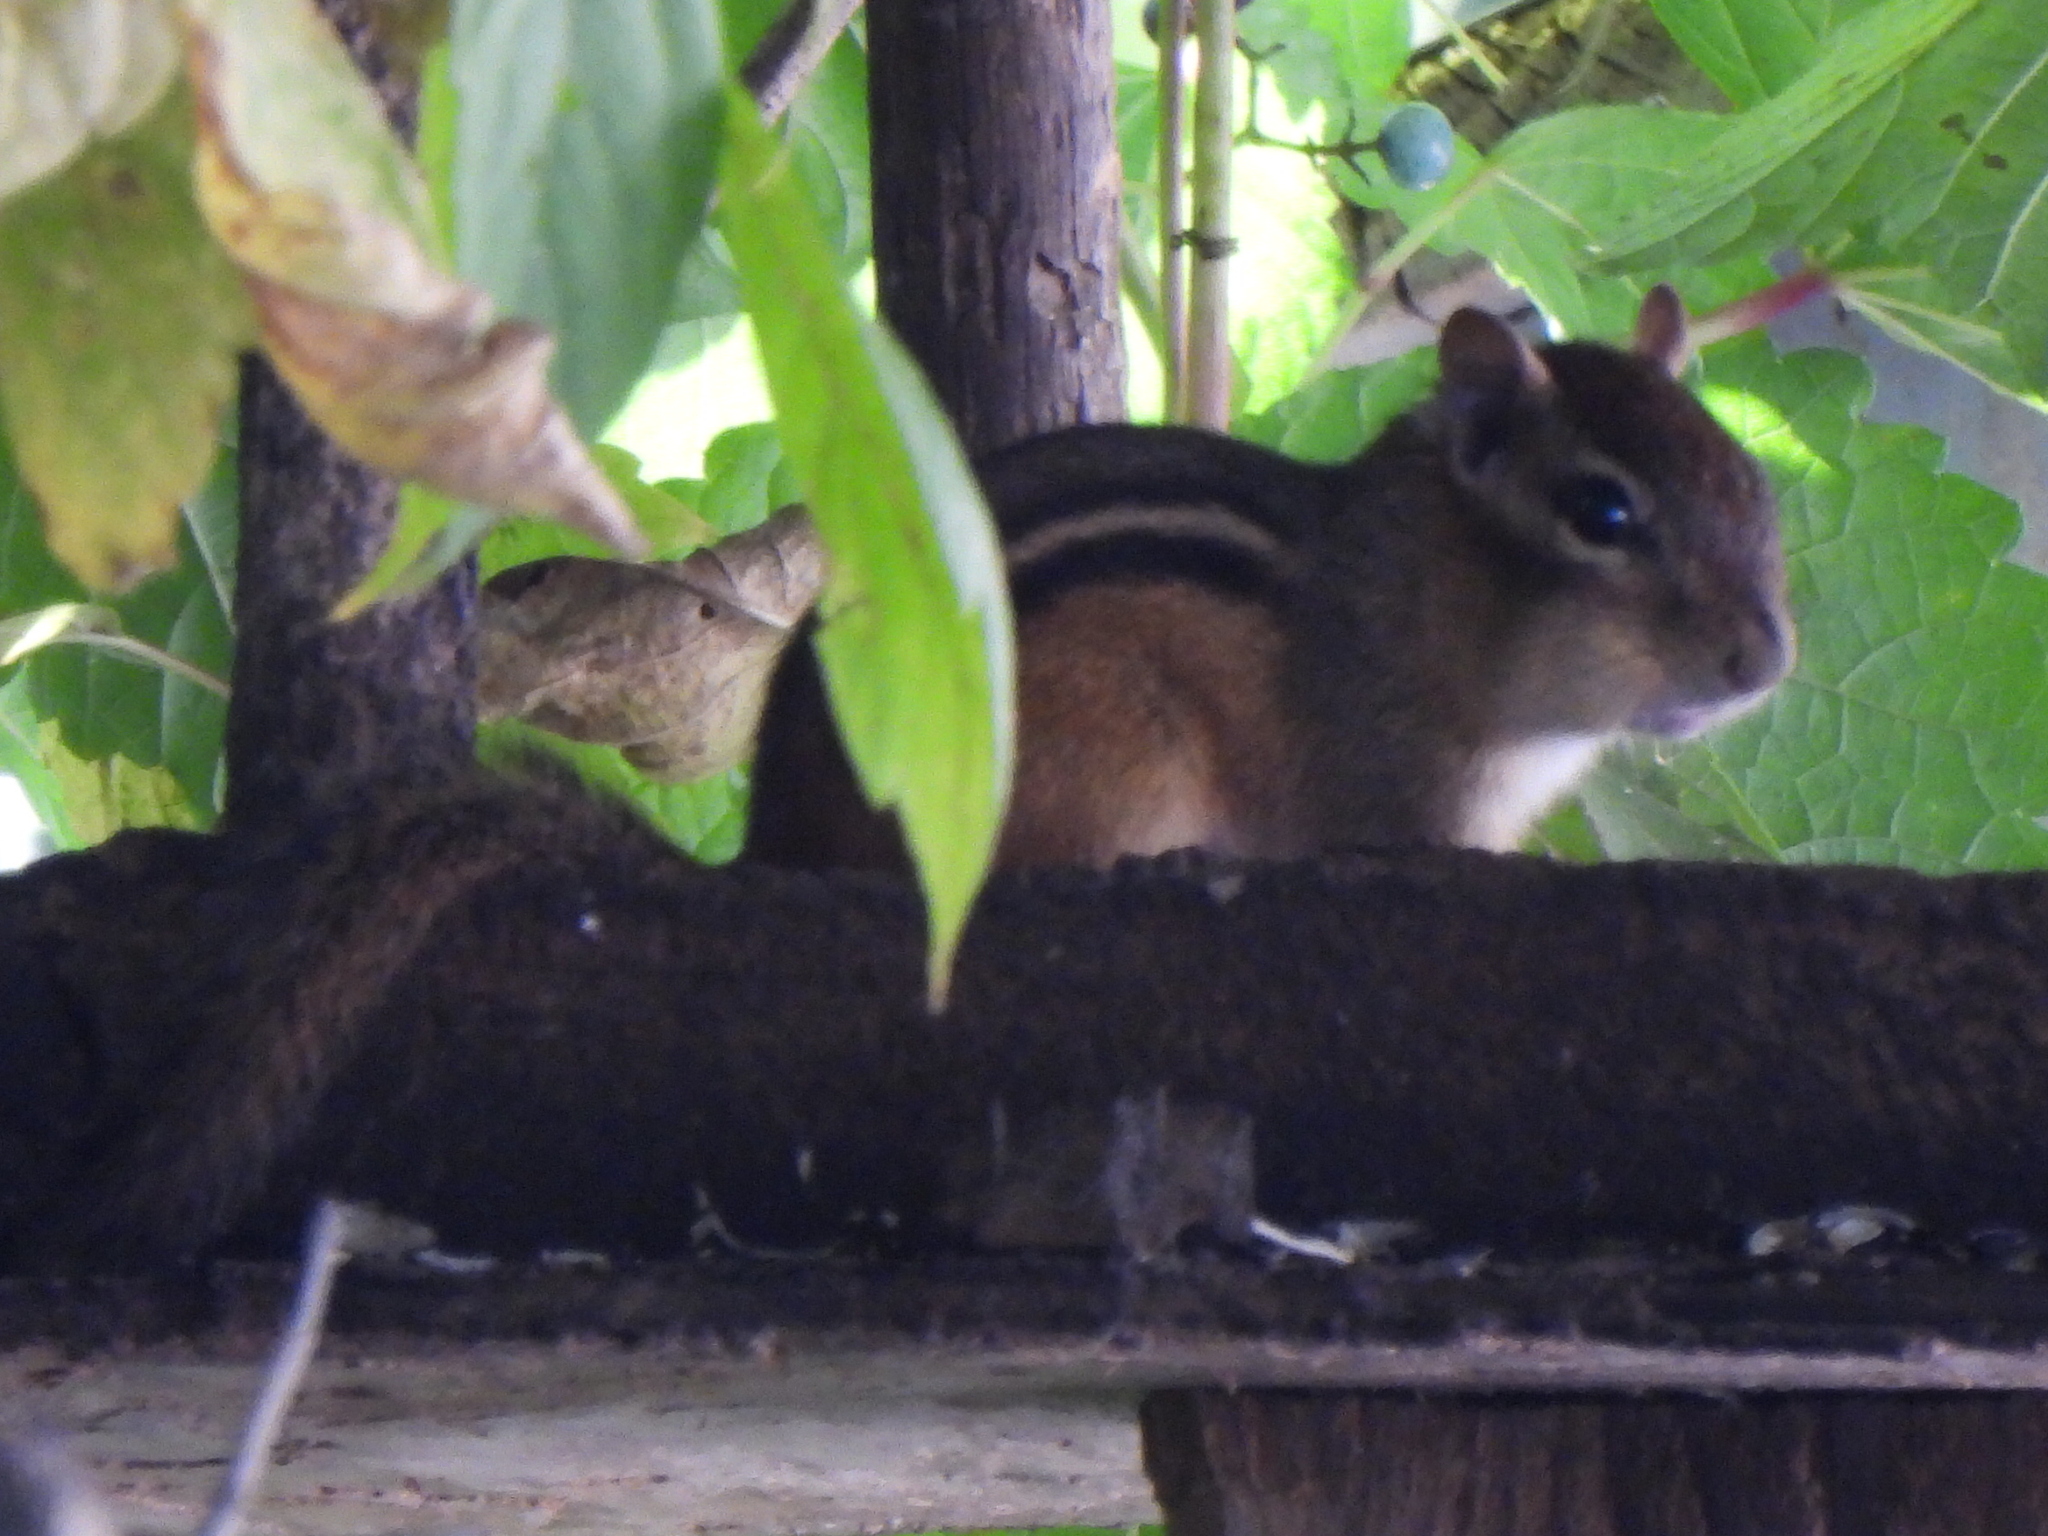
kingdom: Animalia
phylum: Chordata
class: Mammalia
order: Rodentia
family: Sciuridae
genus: Tamias
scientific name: Tamias striatus
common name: Eastern chipmunk
